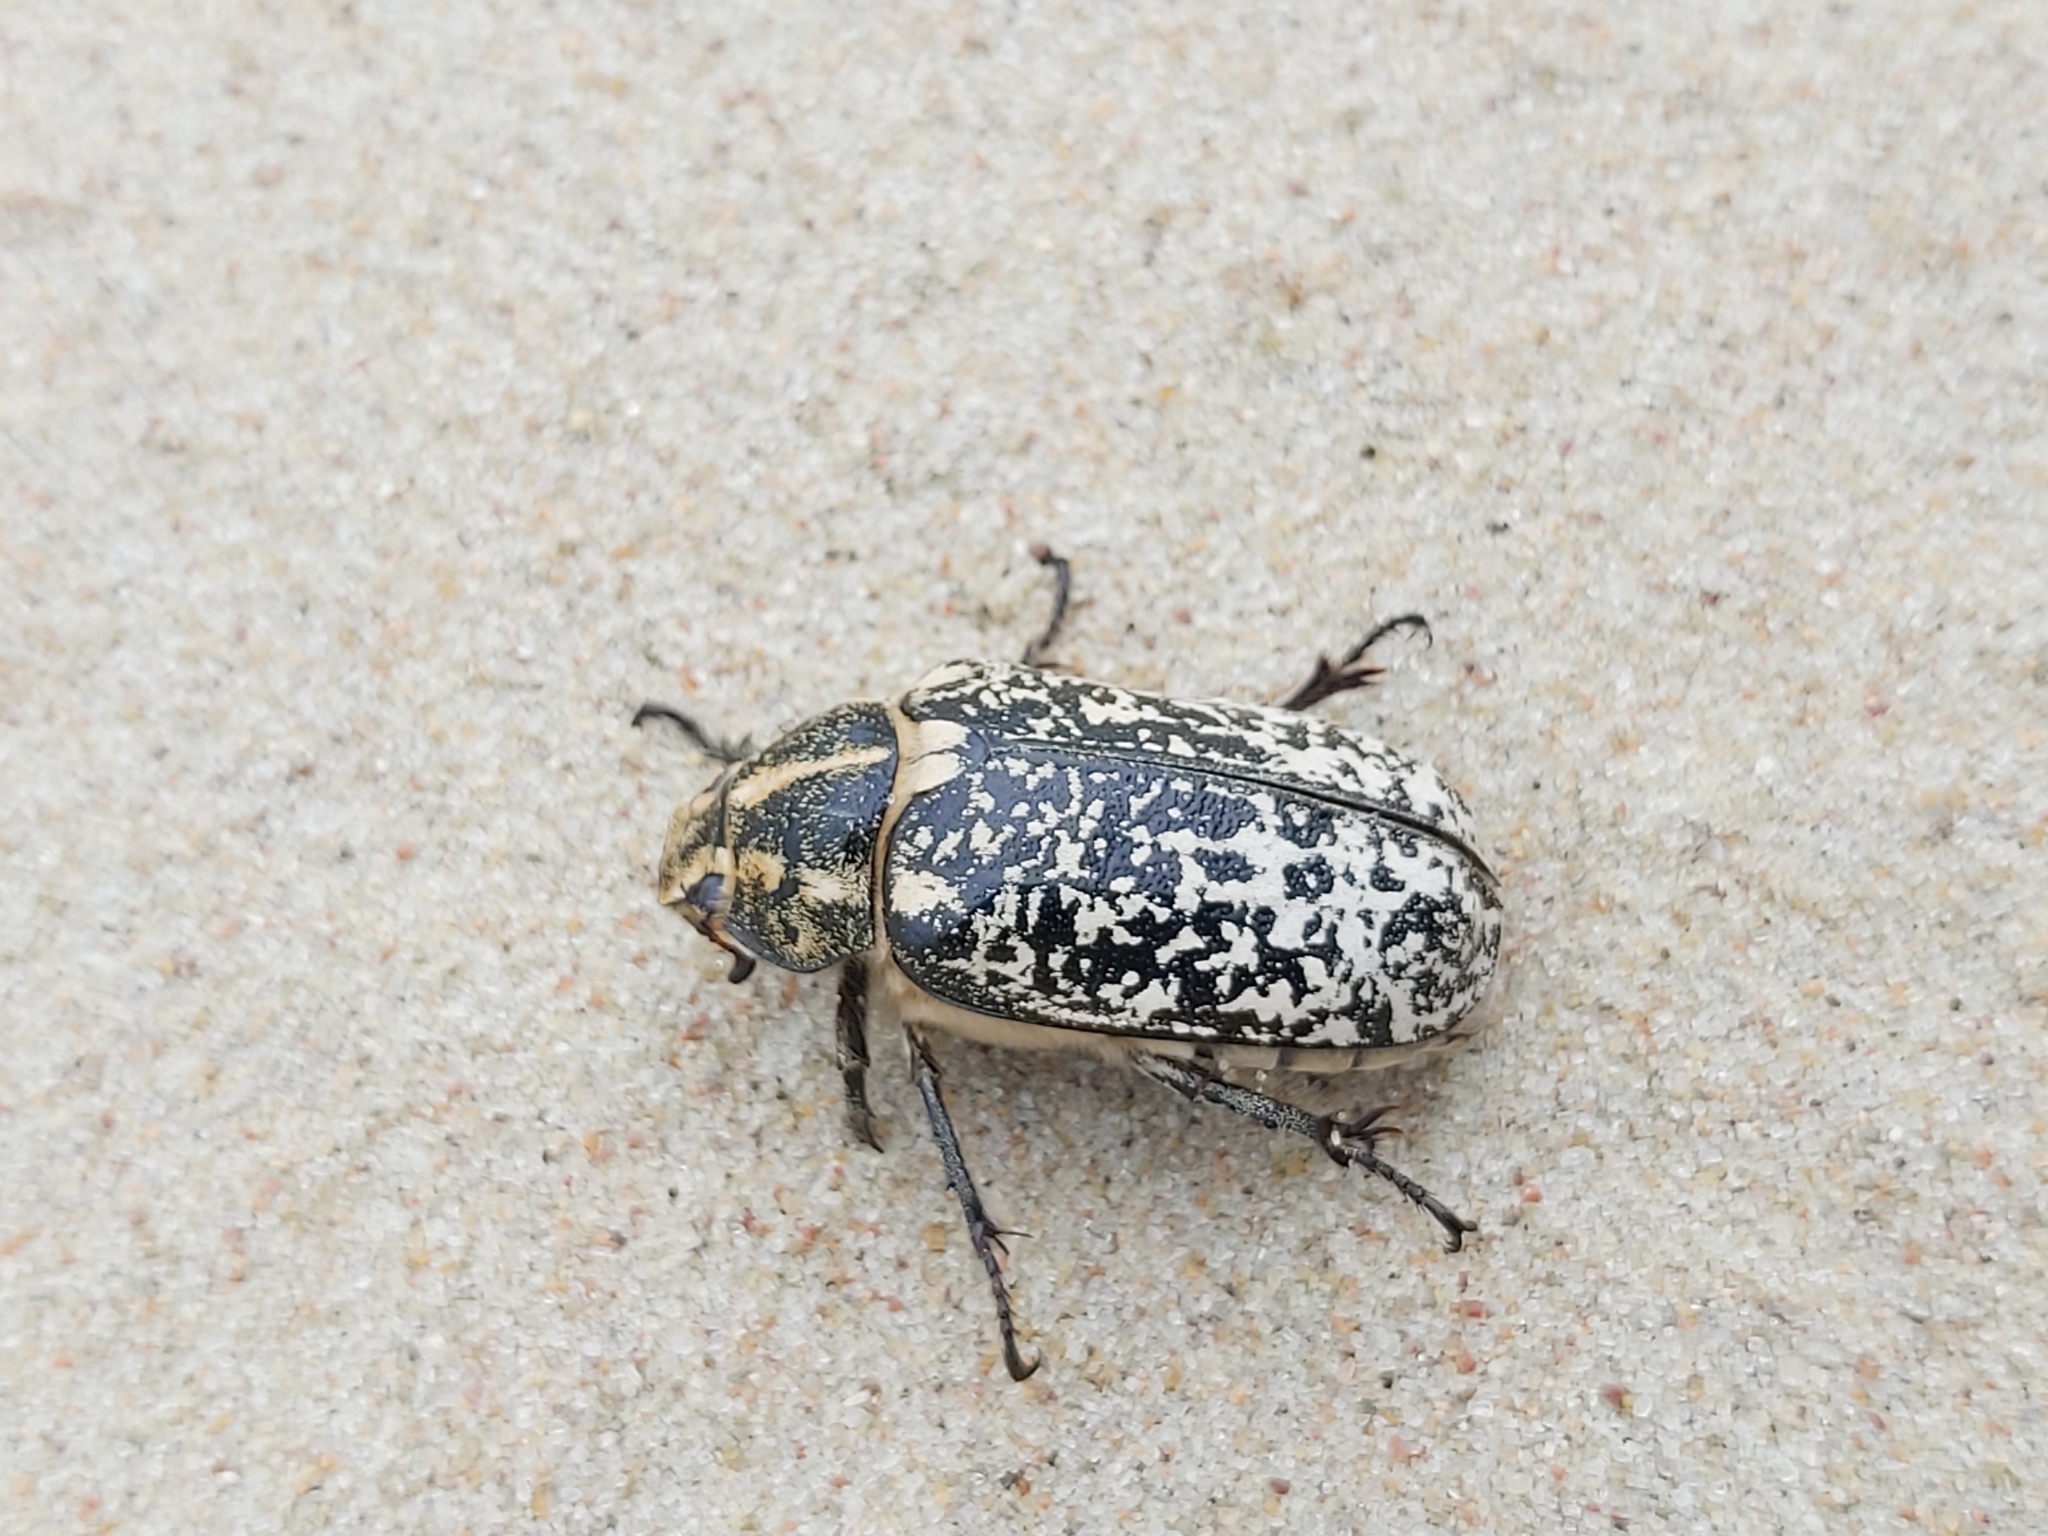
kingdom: Animalia
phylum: Arthropoda
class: Insecta
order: Coleoptera
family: Scarabaeidae
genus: Polyphylla
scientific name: Polyphylla fullo
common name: Pine chafer
